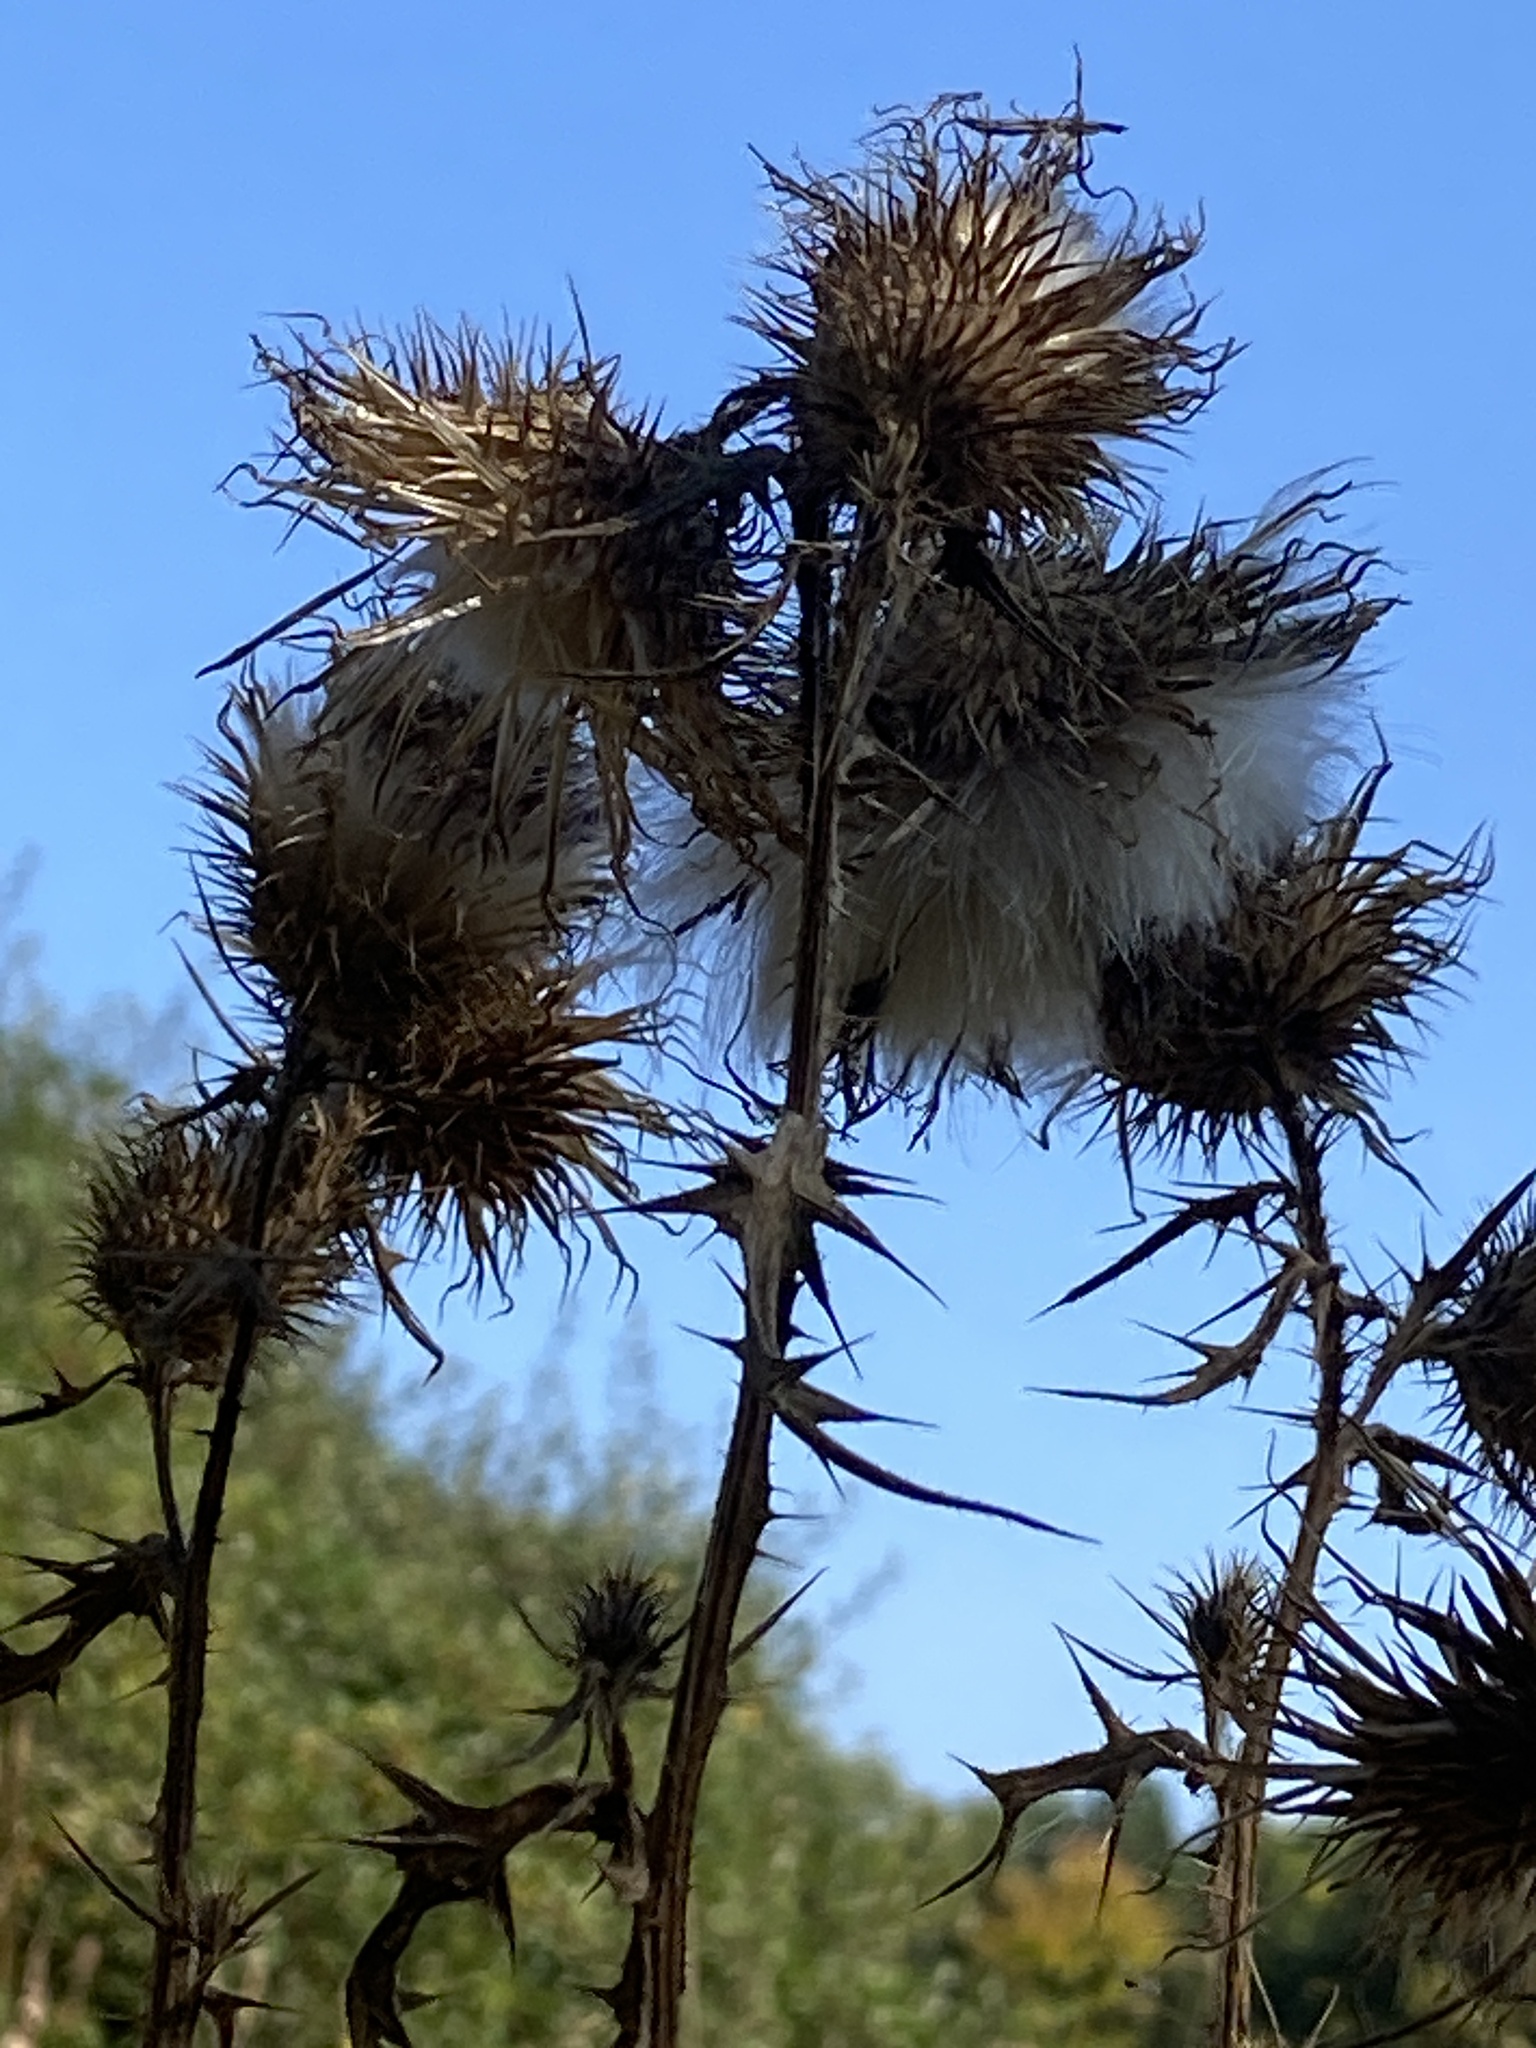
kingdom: Plantae
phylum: Tracheophyta
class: Magnoliopsida
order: Asterales
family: Asteraceae
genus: Cirsium
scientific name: Cirsium vulgare
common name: Bull thistle
